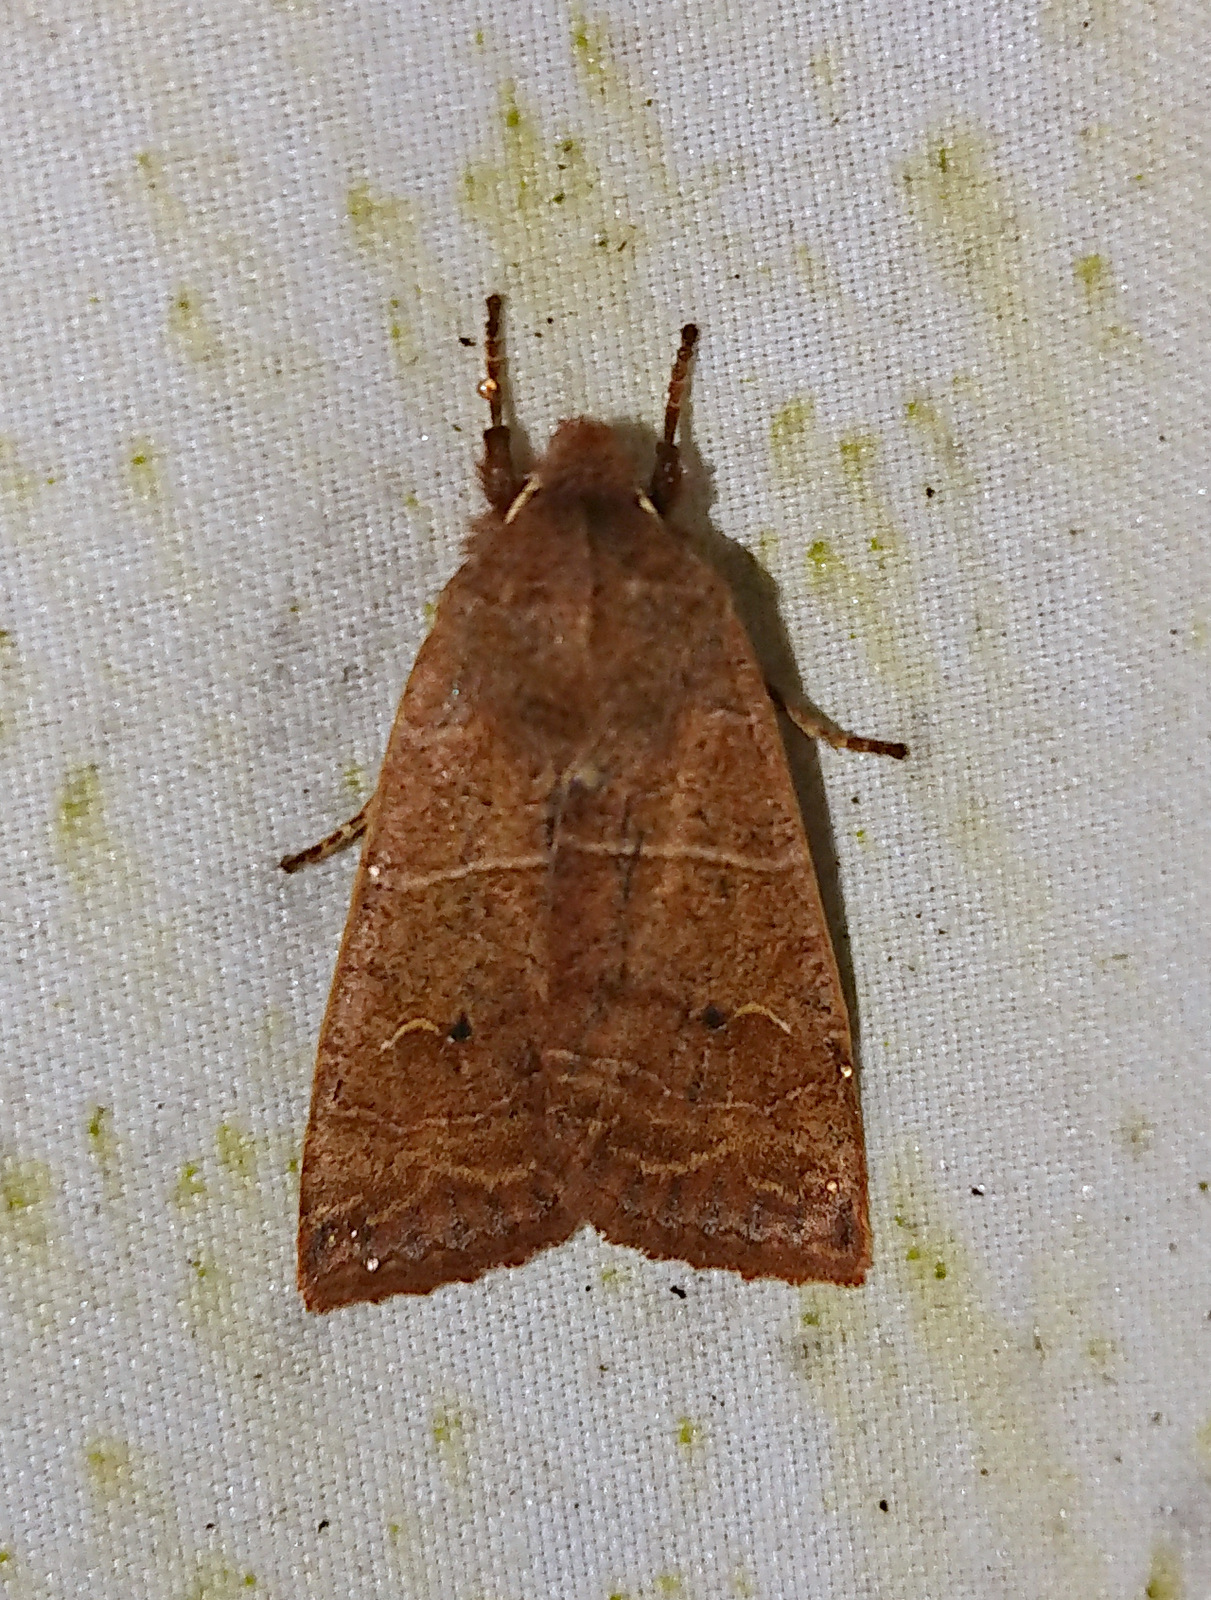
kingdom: Animalia
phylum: Arthropoda
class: Insecta
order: Lepidoptera
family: Noctuidae
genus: Eupsilia
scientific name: Eupsilia morrisoni
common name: Morrison's sallow
